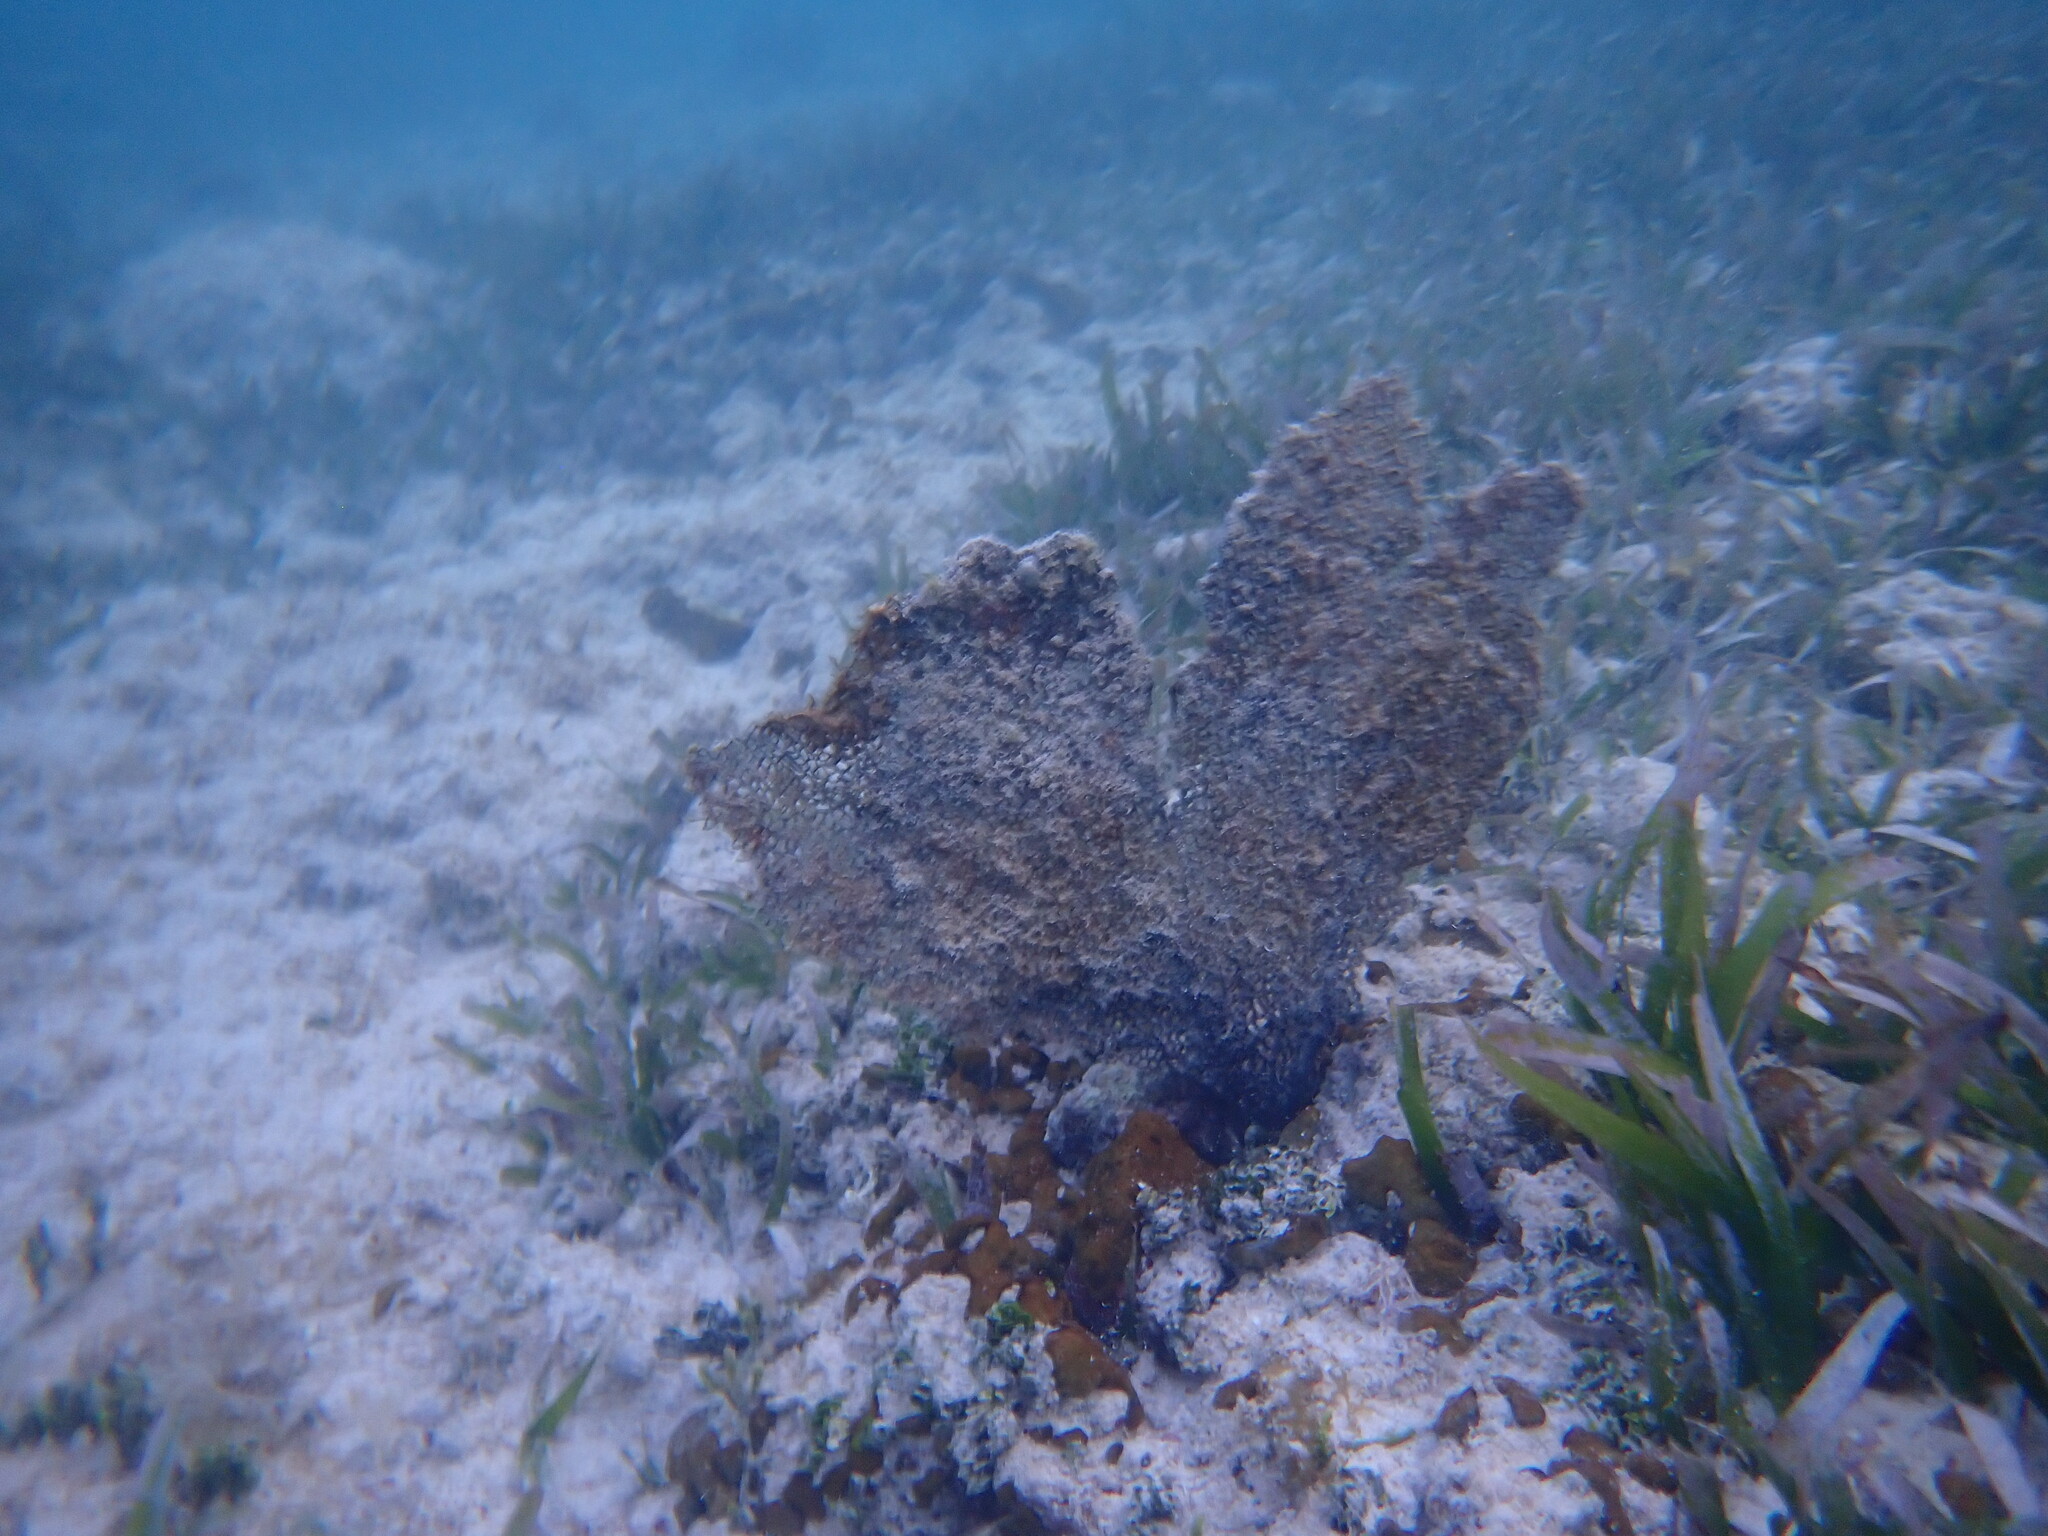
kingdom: Animalia
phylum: Cnidaria
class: Anthozoa
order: Malacalcyonacea
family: Gorgoniidae
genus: Gorgonia
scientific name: Gorgonia ventalina
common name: Common sea fan
